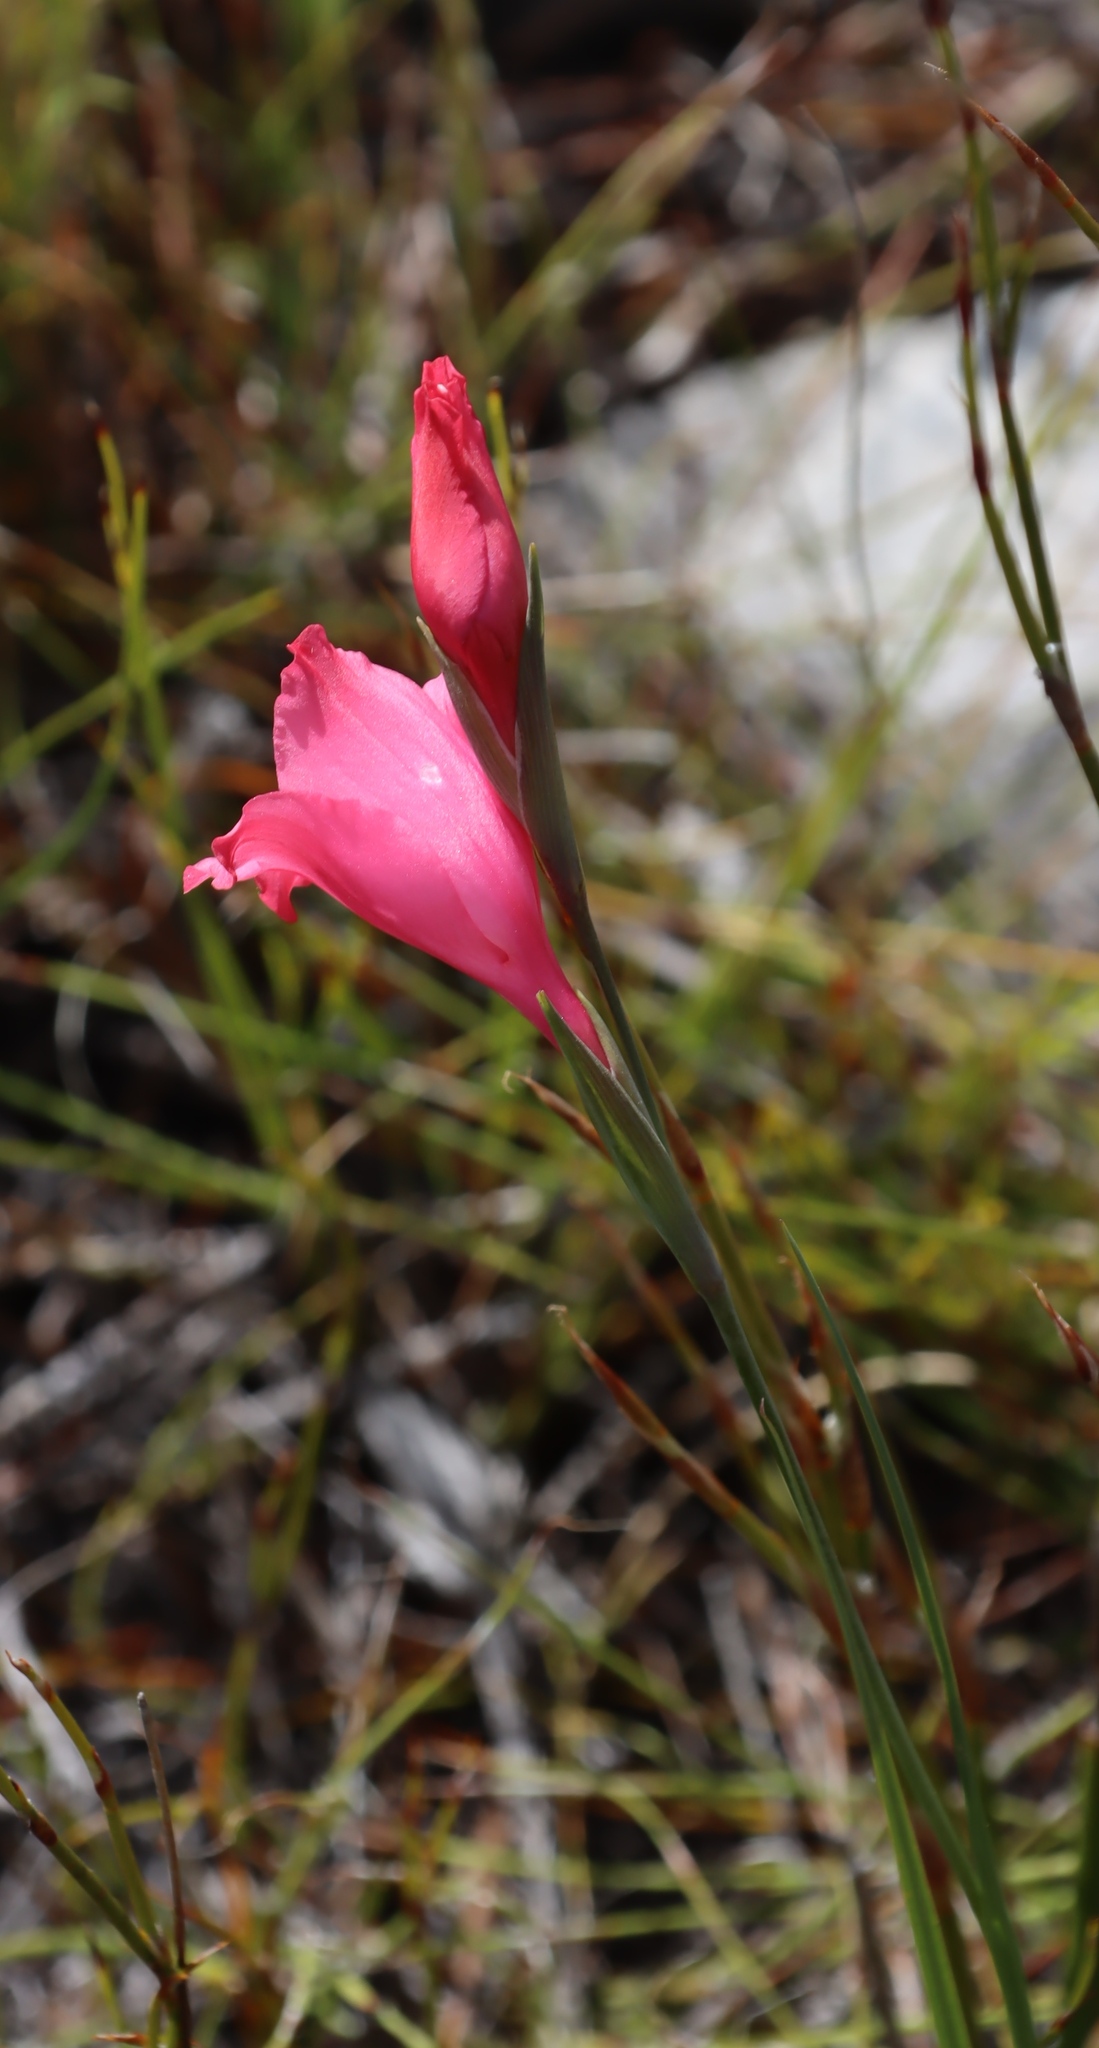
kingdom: Plantae
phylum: Tracheophyta
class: Liliopsida
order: Asparagales
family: Iridaceae
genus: Gladiolus
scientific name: Gladiolus crispulatus
